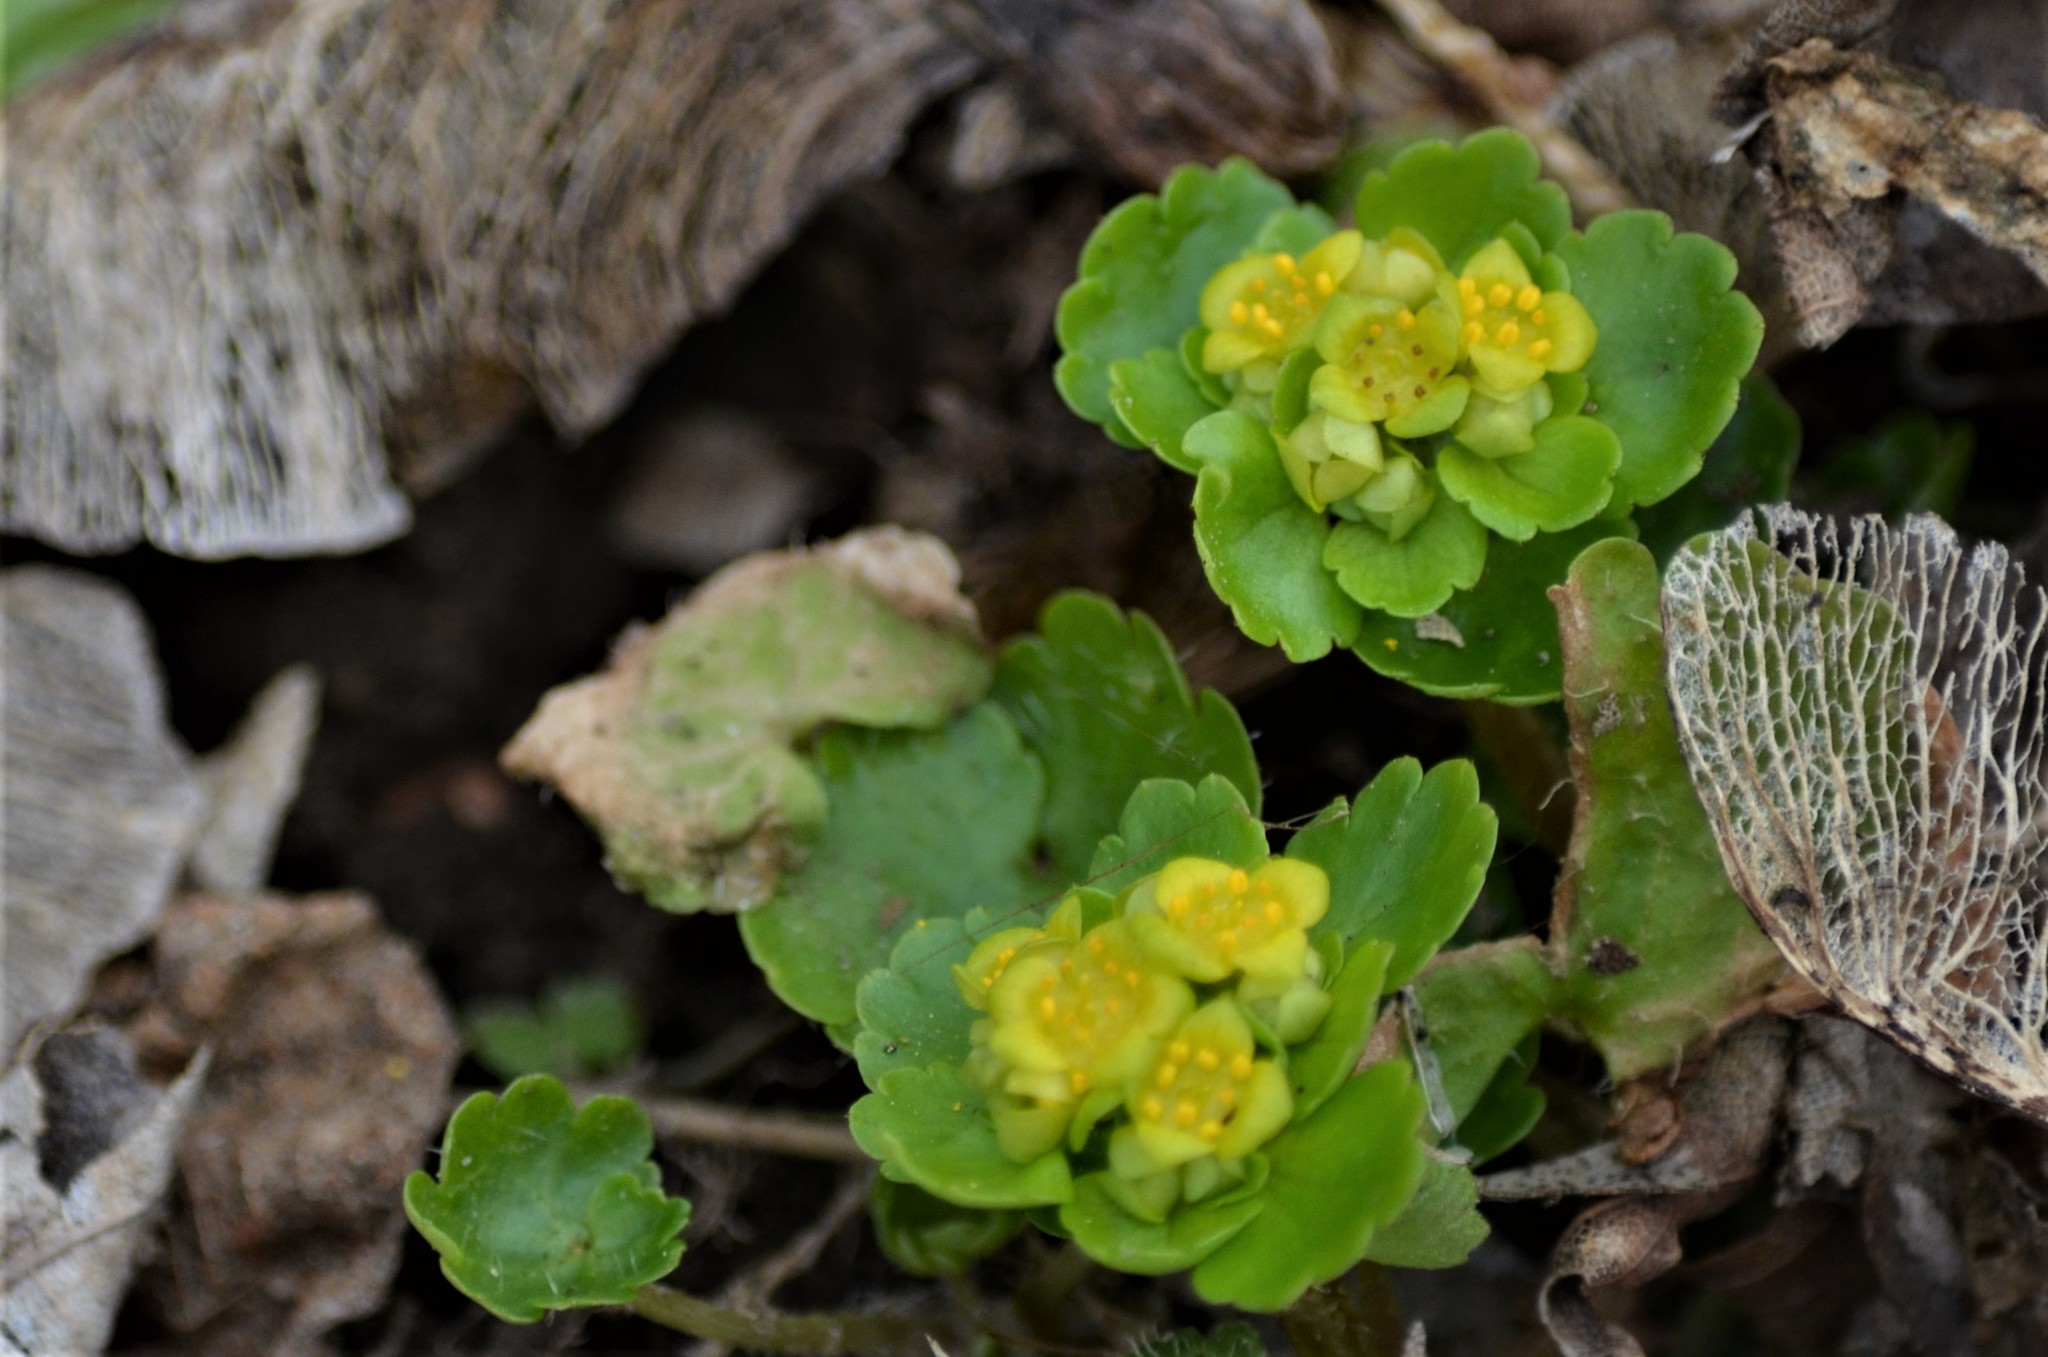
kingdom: Plantae
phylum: Tracheophyta
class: Magnoliopsida
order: Saxifragales
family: Saxifragaceae
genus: Chrysosplenium
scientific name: Chrysosplenium alternifolium
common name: Alternate-leaved golden-saxifrage
